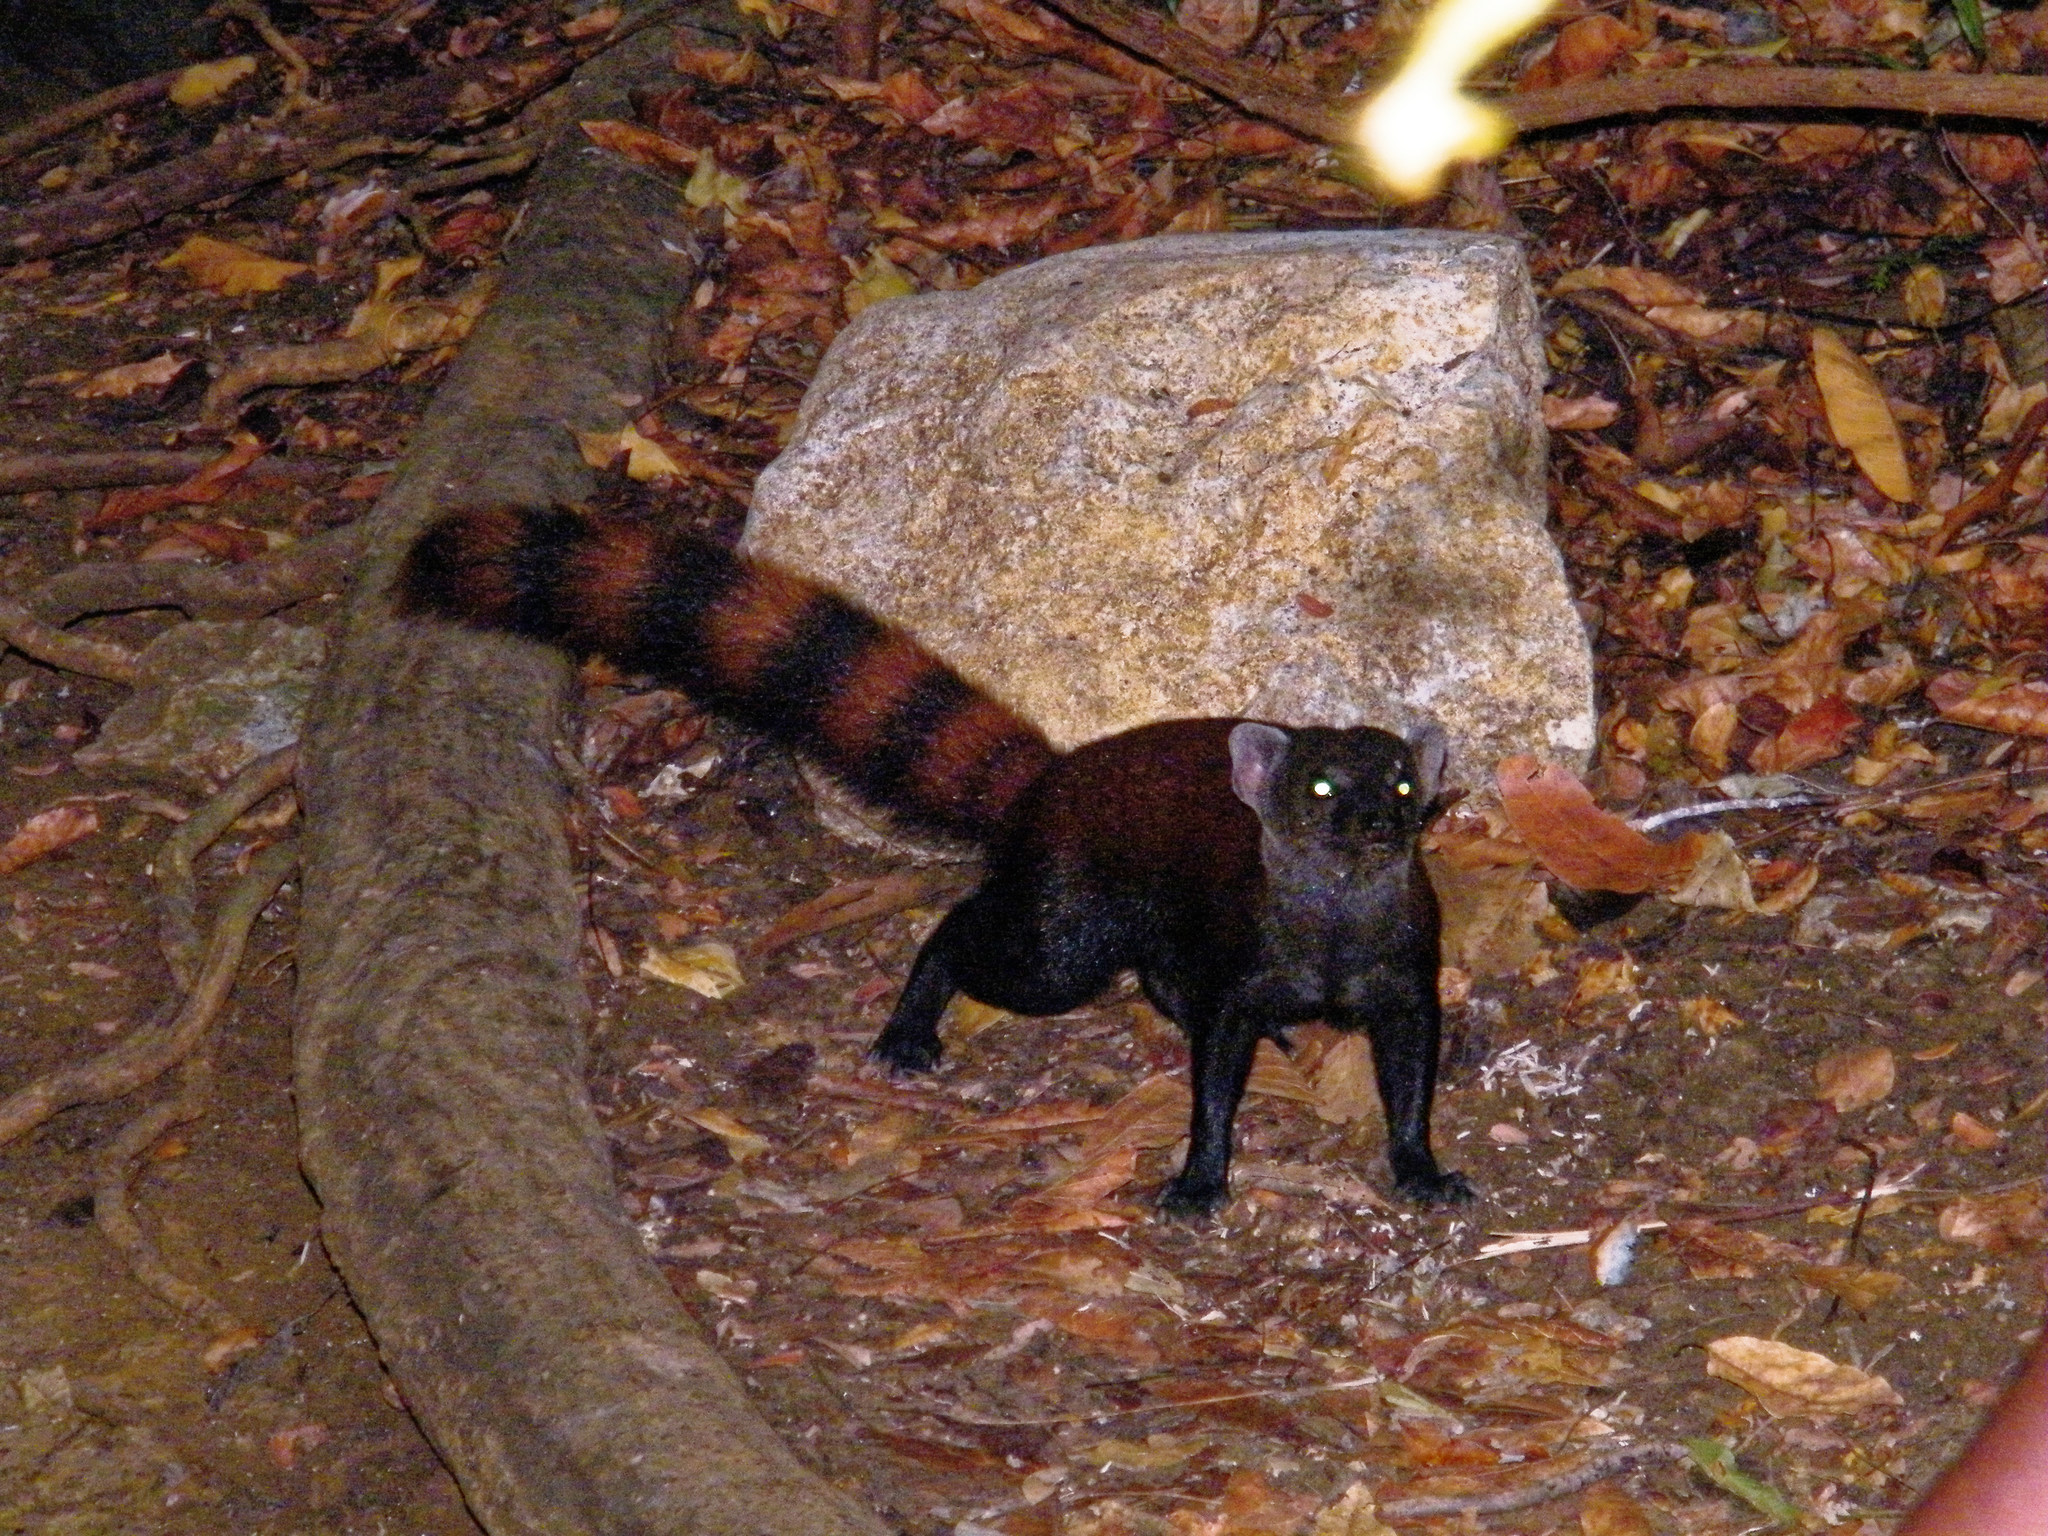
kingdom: Animalia
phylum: Chordata
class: Mammalia
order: Carnivora
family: Eupleridae
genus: Galidia
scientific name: Galidia elegans
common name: Ring-tailed mongoose
